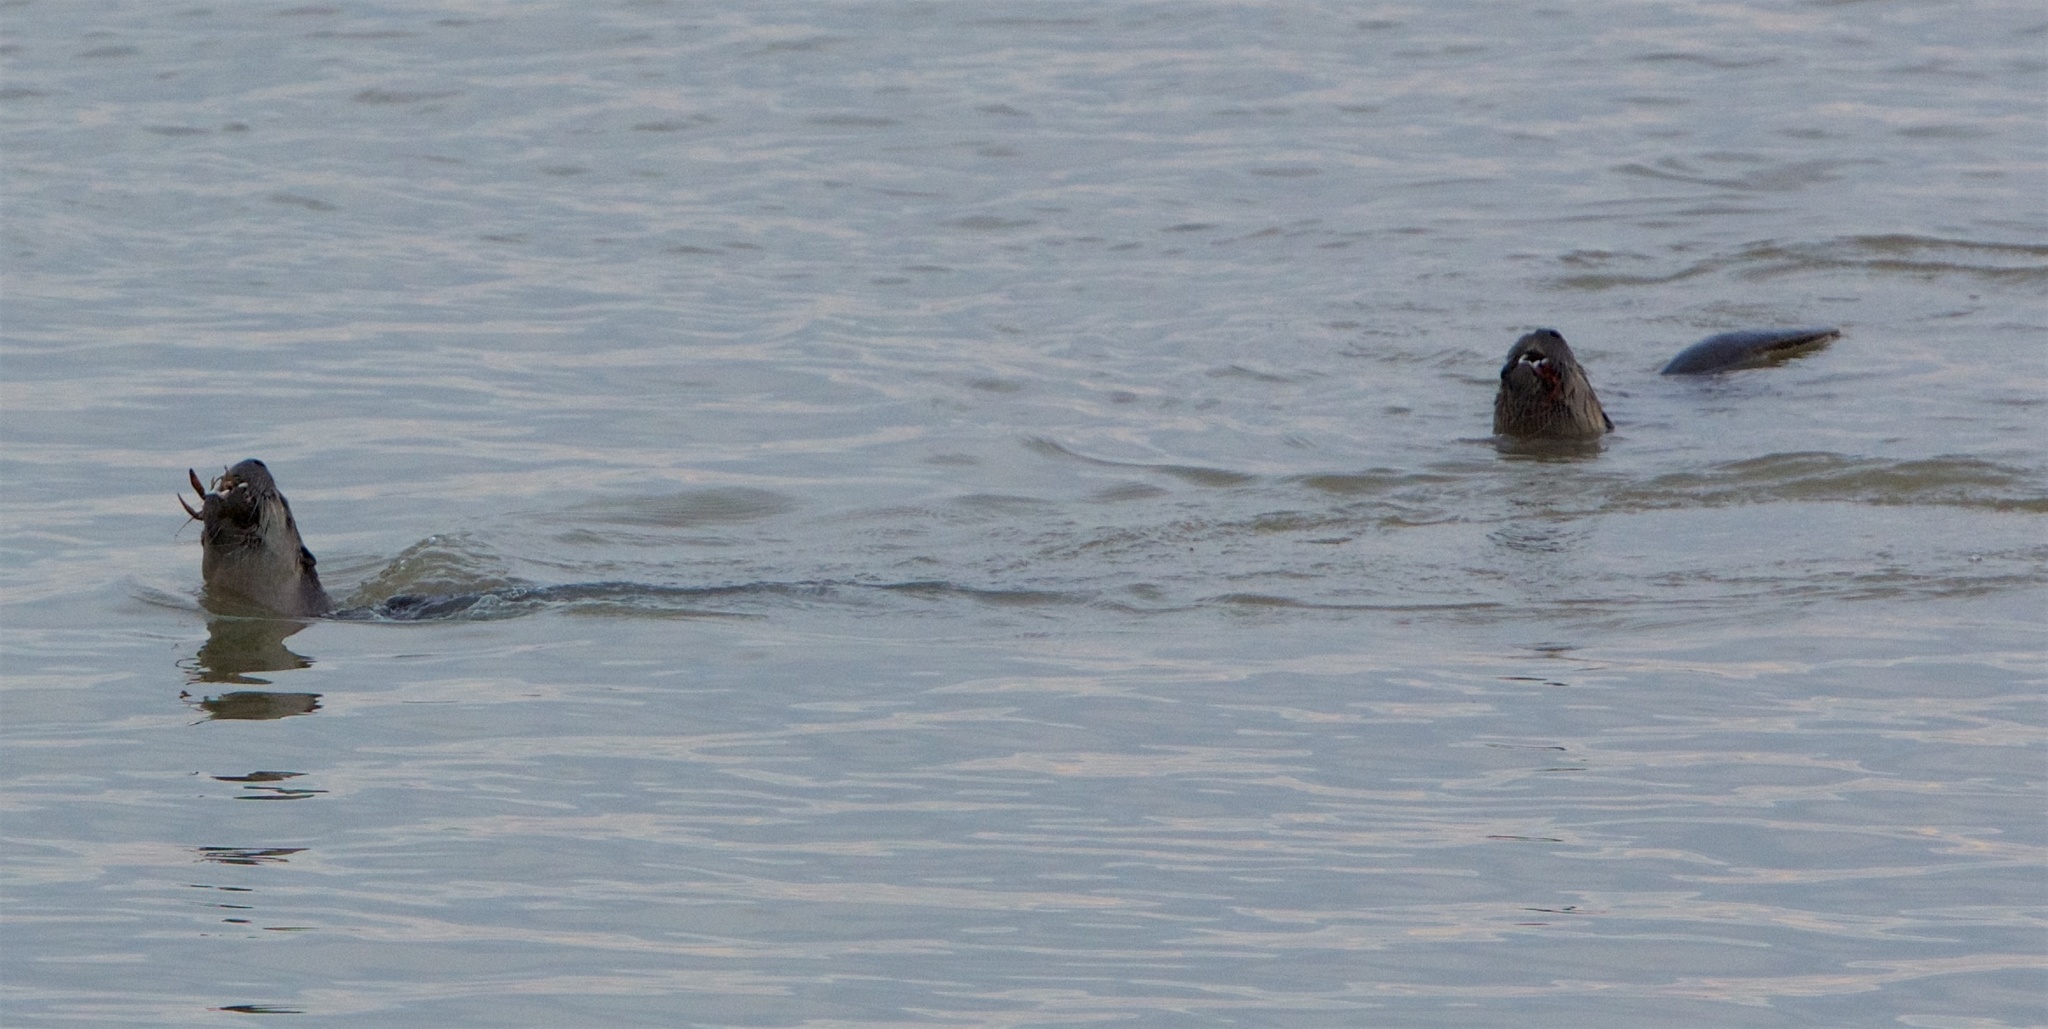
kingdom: Animalia
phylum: Chordata
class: Mammalia
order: Carnivora
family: Mustelidae
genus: Lontra
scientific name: Lontra canadensis
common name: North american river otter
